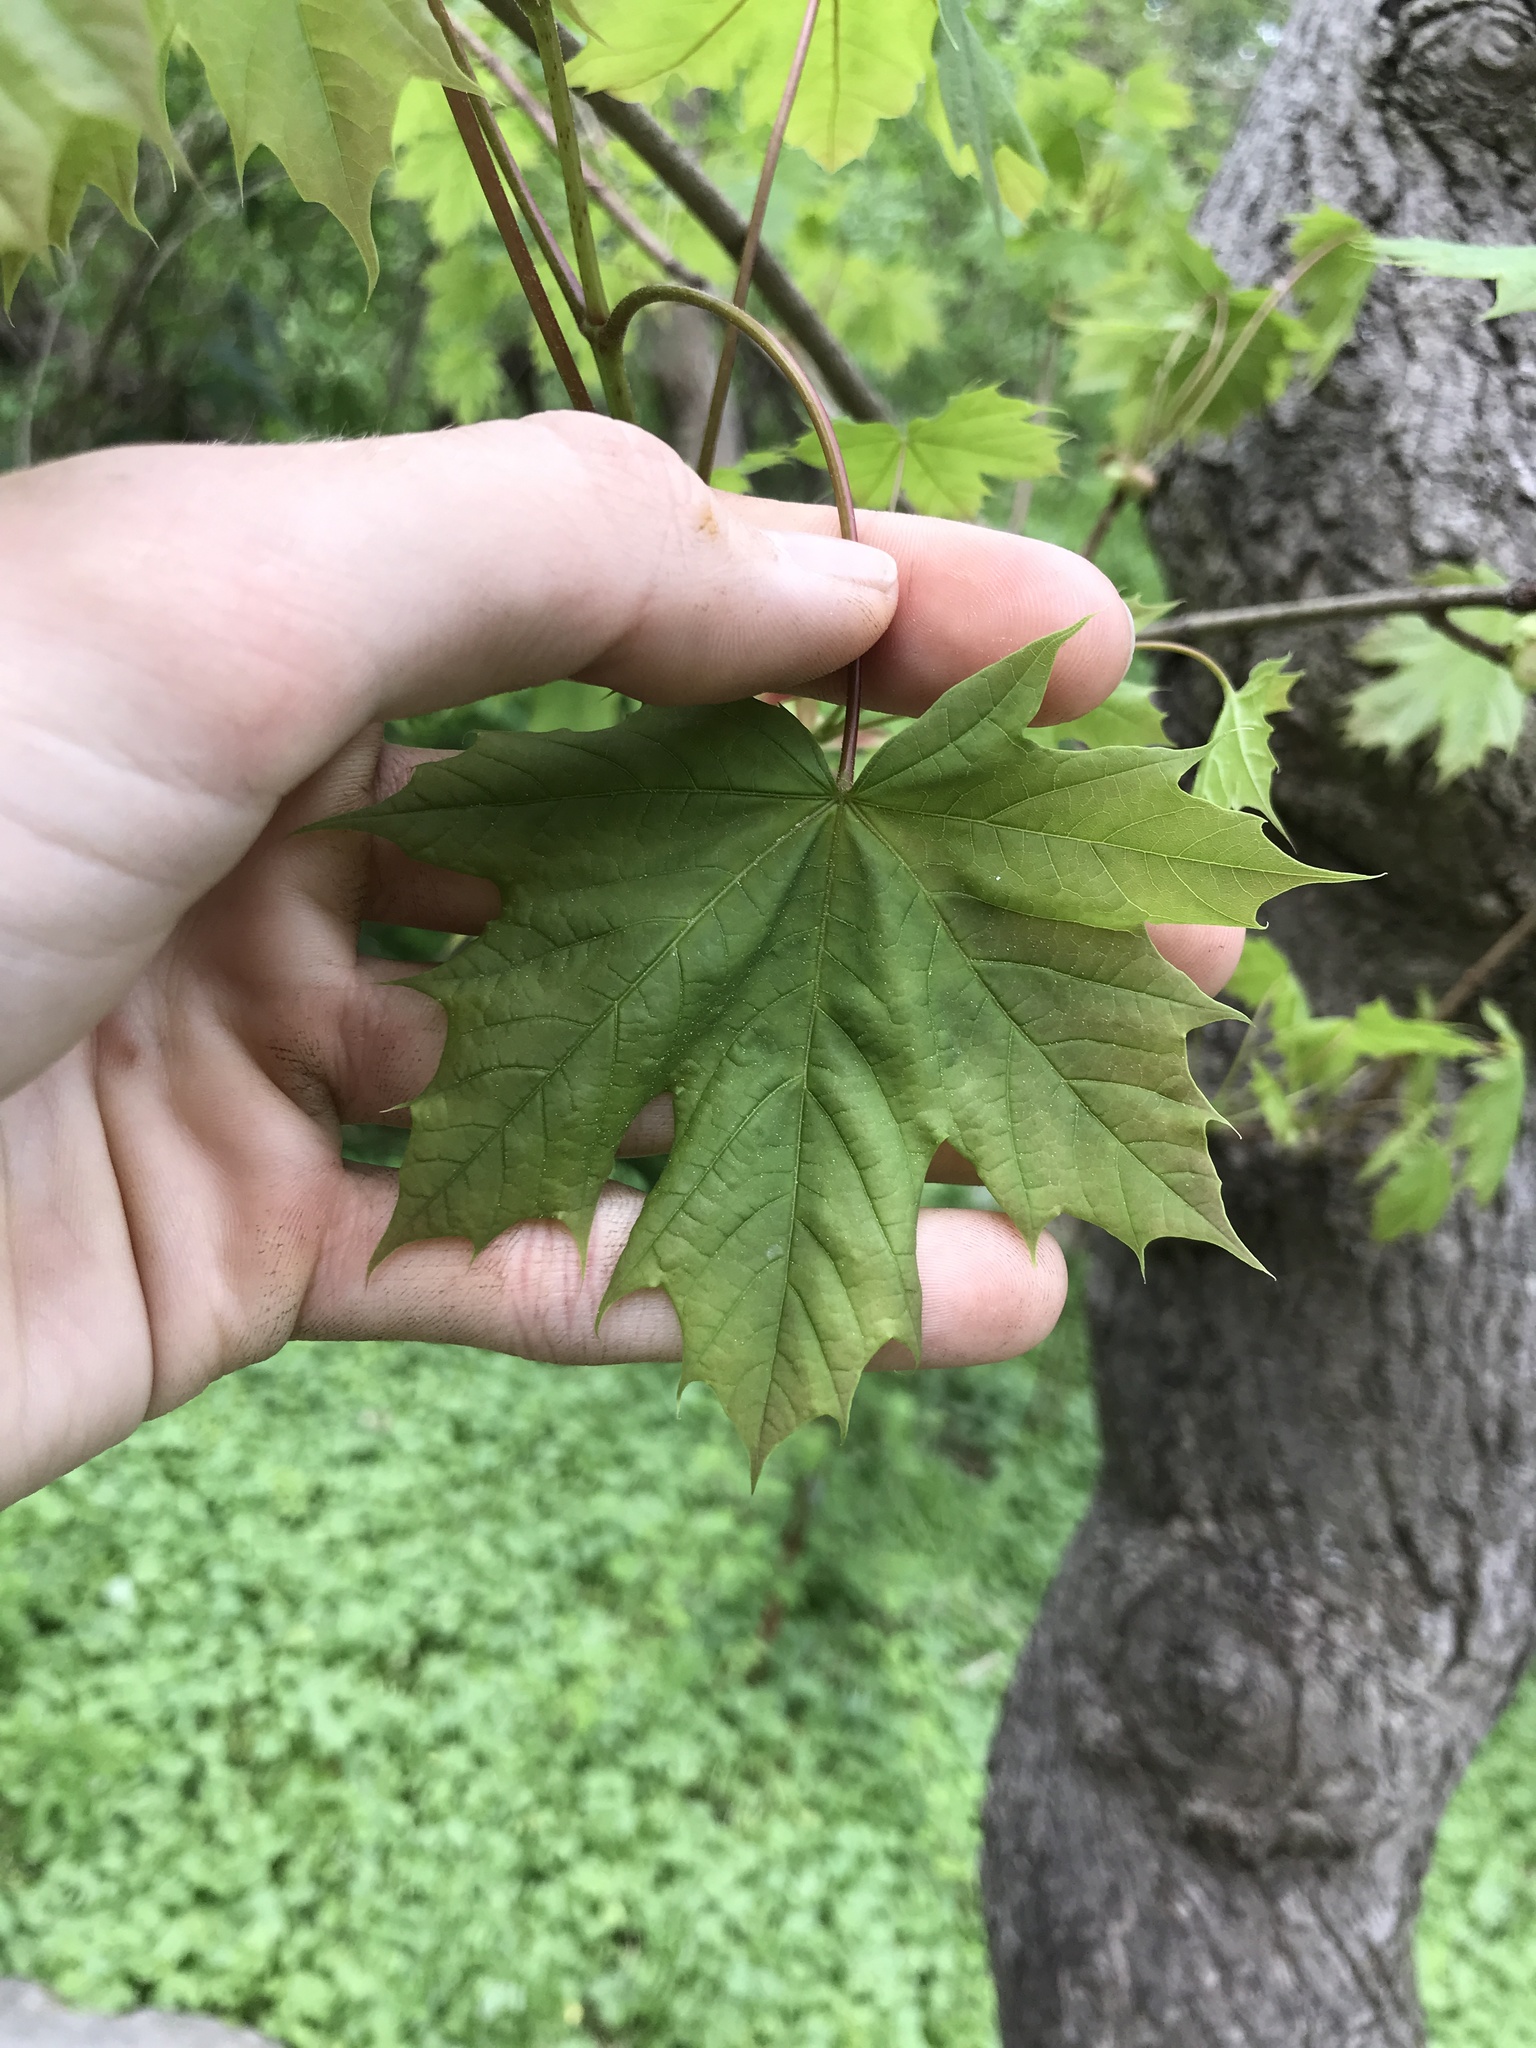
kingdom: Plantae
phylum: Tracheophyta
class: Magnoliopsida
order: Sapindales
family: Sapindaceae
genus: Acer
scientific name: Acer platanoides
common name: Norway maple
